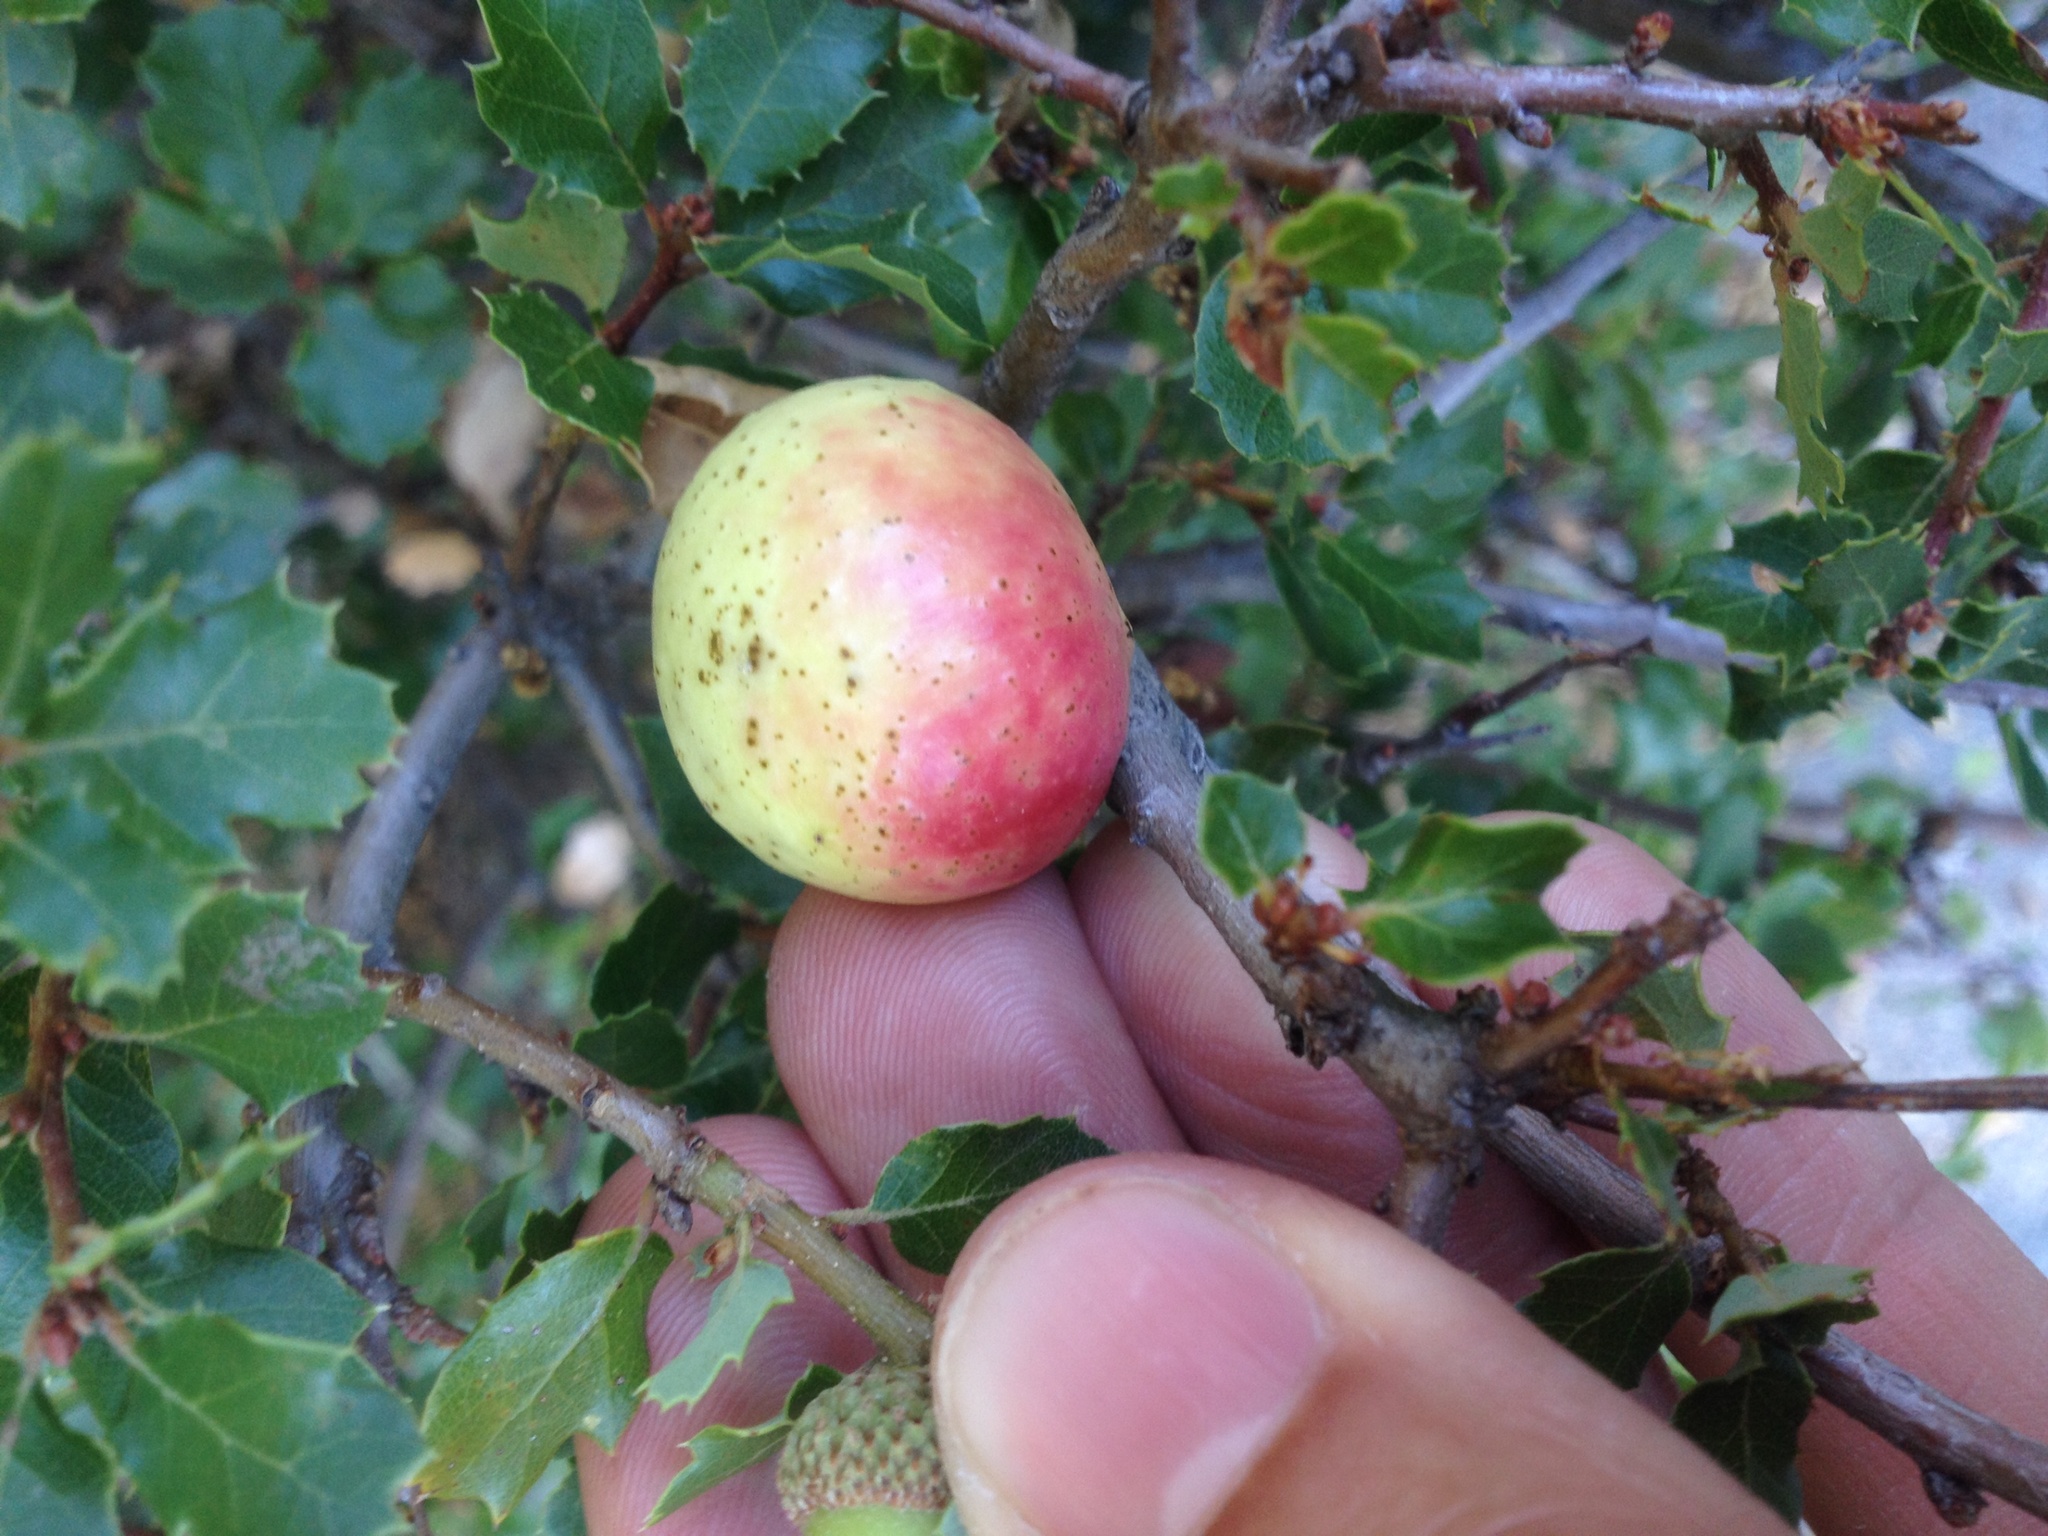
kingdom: Animalia
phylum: Arthropoda
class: Insecta
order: Hymenoptera
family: Cynipidae
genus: Andricus
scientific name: Andricus quercuscalifornicus
